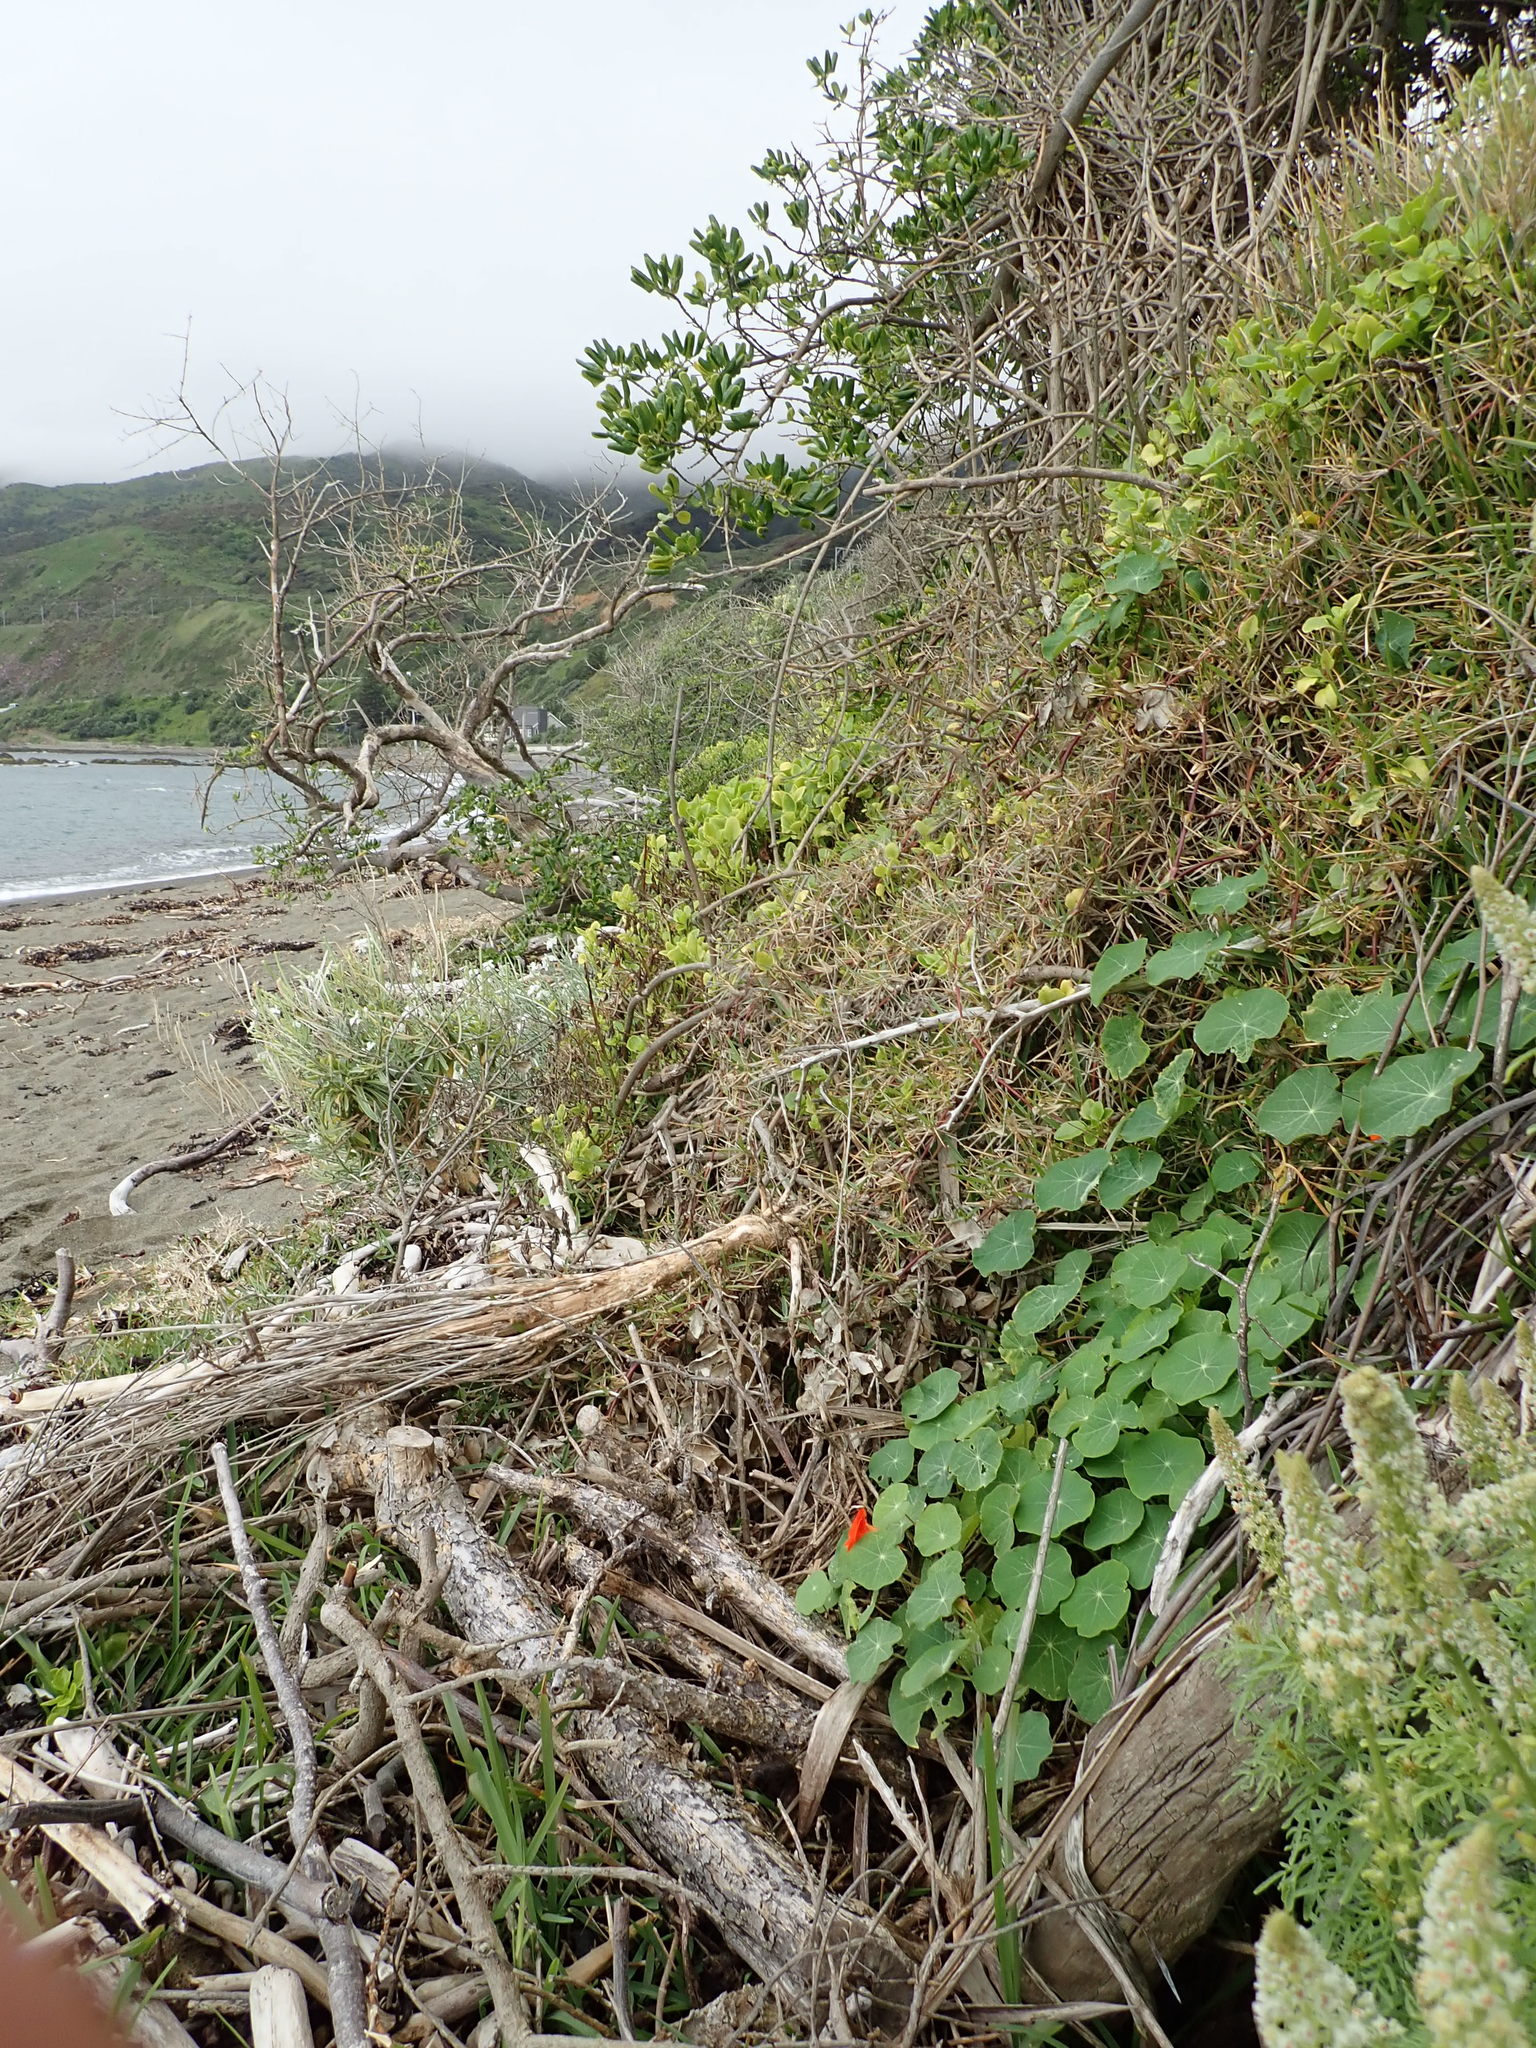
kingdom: Plantae
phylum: Tracheophyta
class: Magnoliopsida
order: Brassicales
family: Tropaeolaceae
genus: Tropaeolum
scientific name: Tropaeolum majus
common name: Nasturtium
